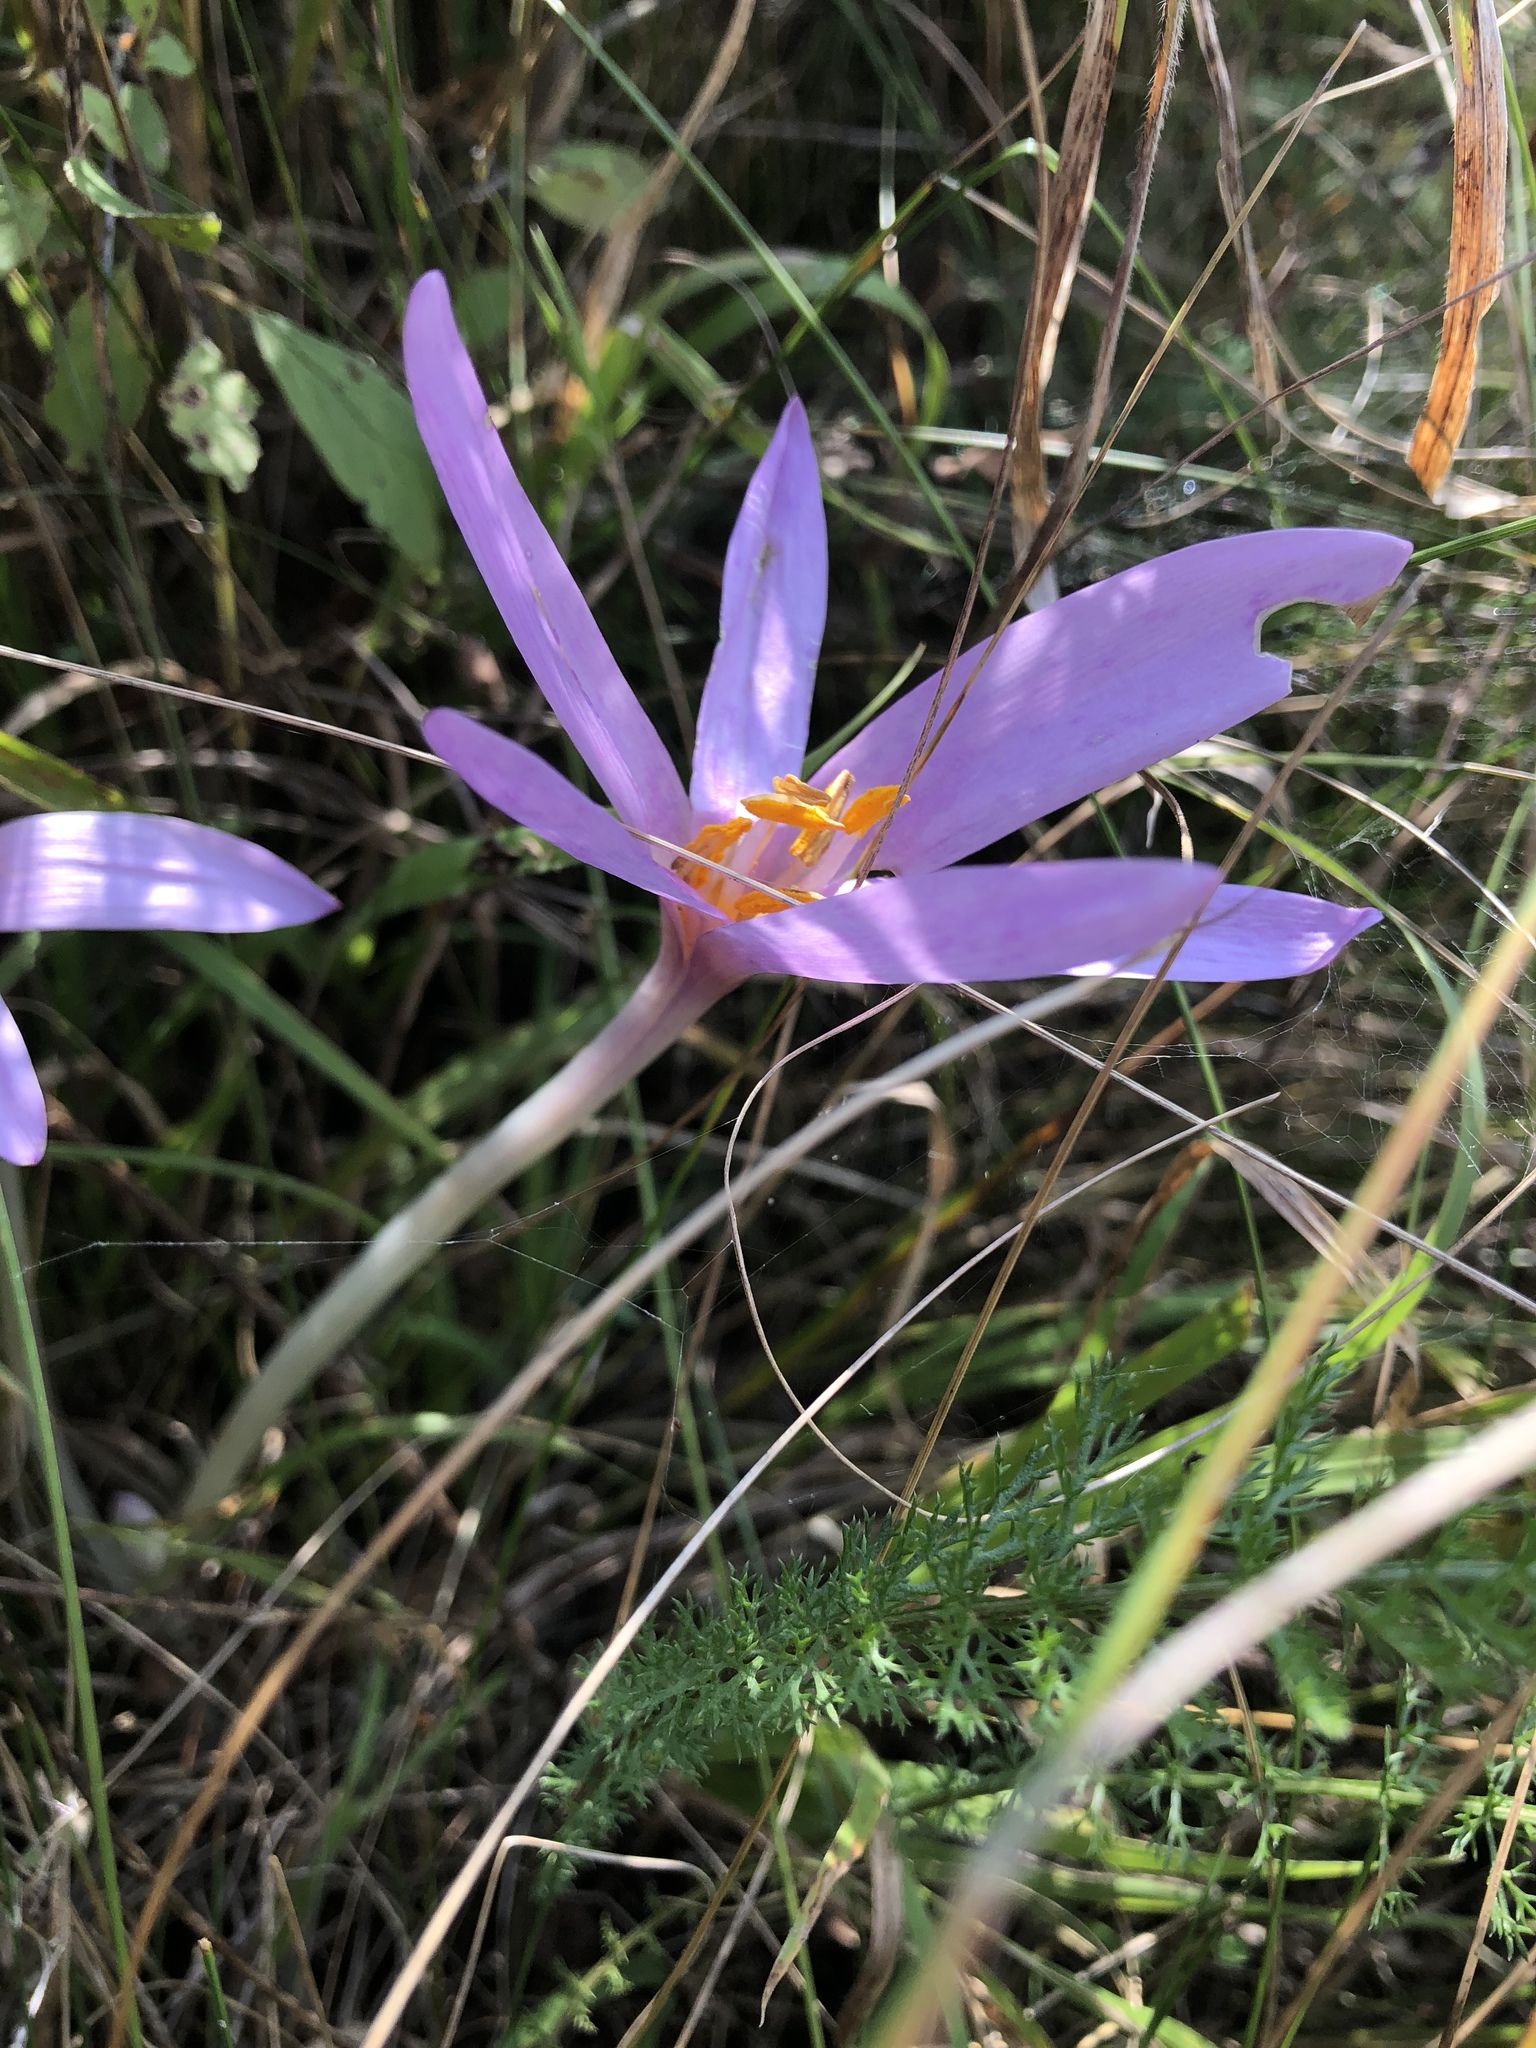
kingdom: Plantae
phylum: Tracheophyta
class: Liliopsida
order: Liliales
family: Colchicaceae
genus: Colchicum
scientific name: Colchicum autumnale
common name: Autumn crocus
